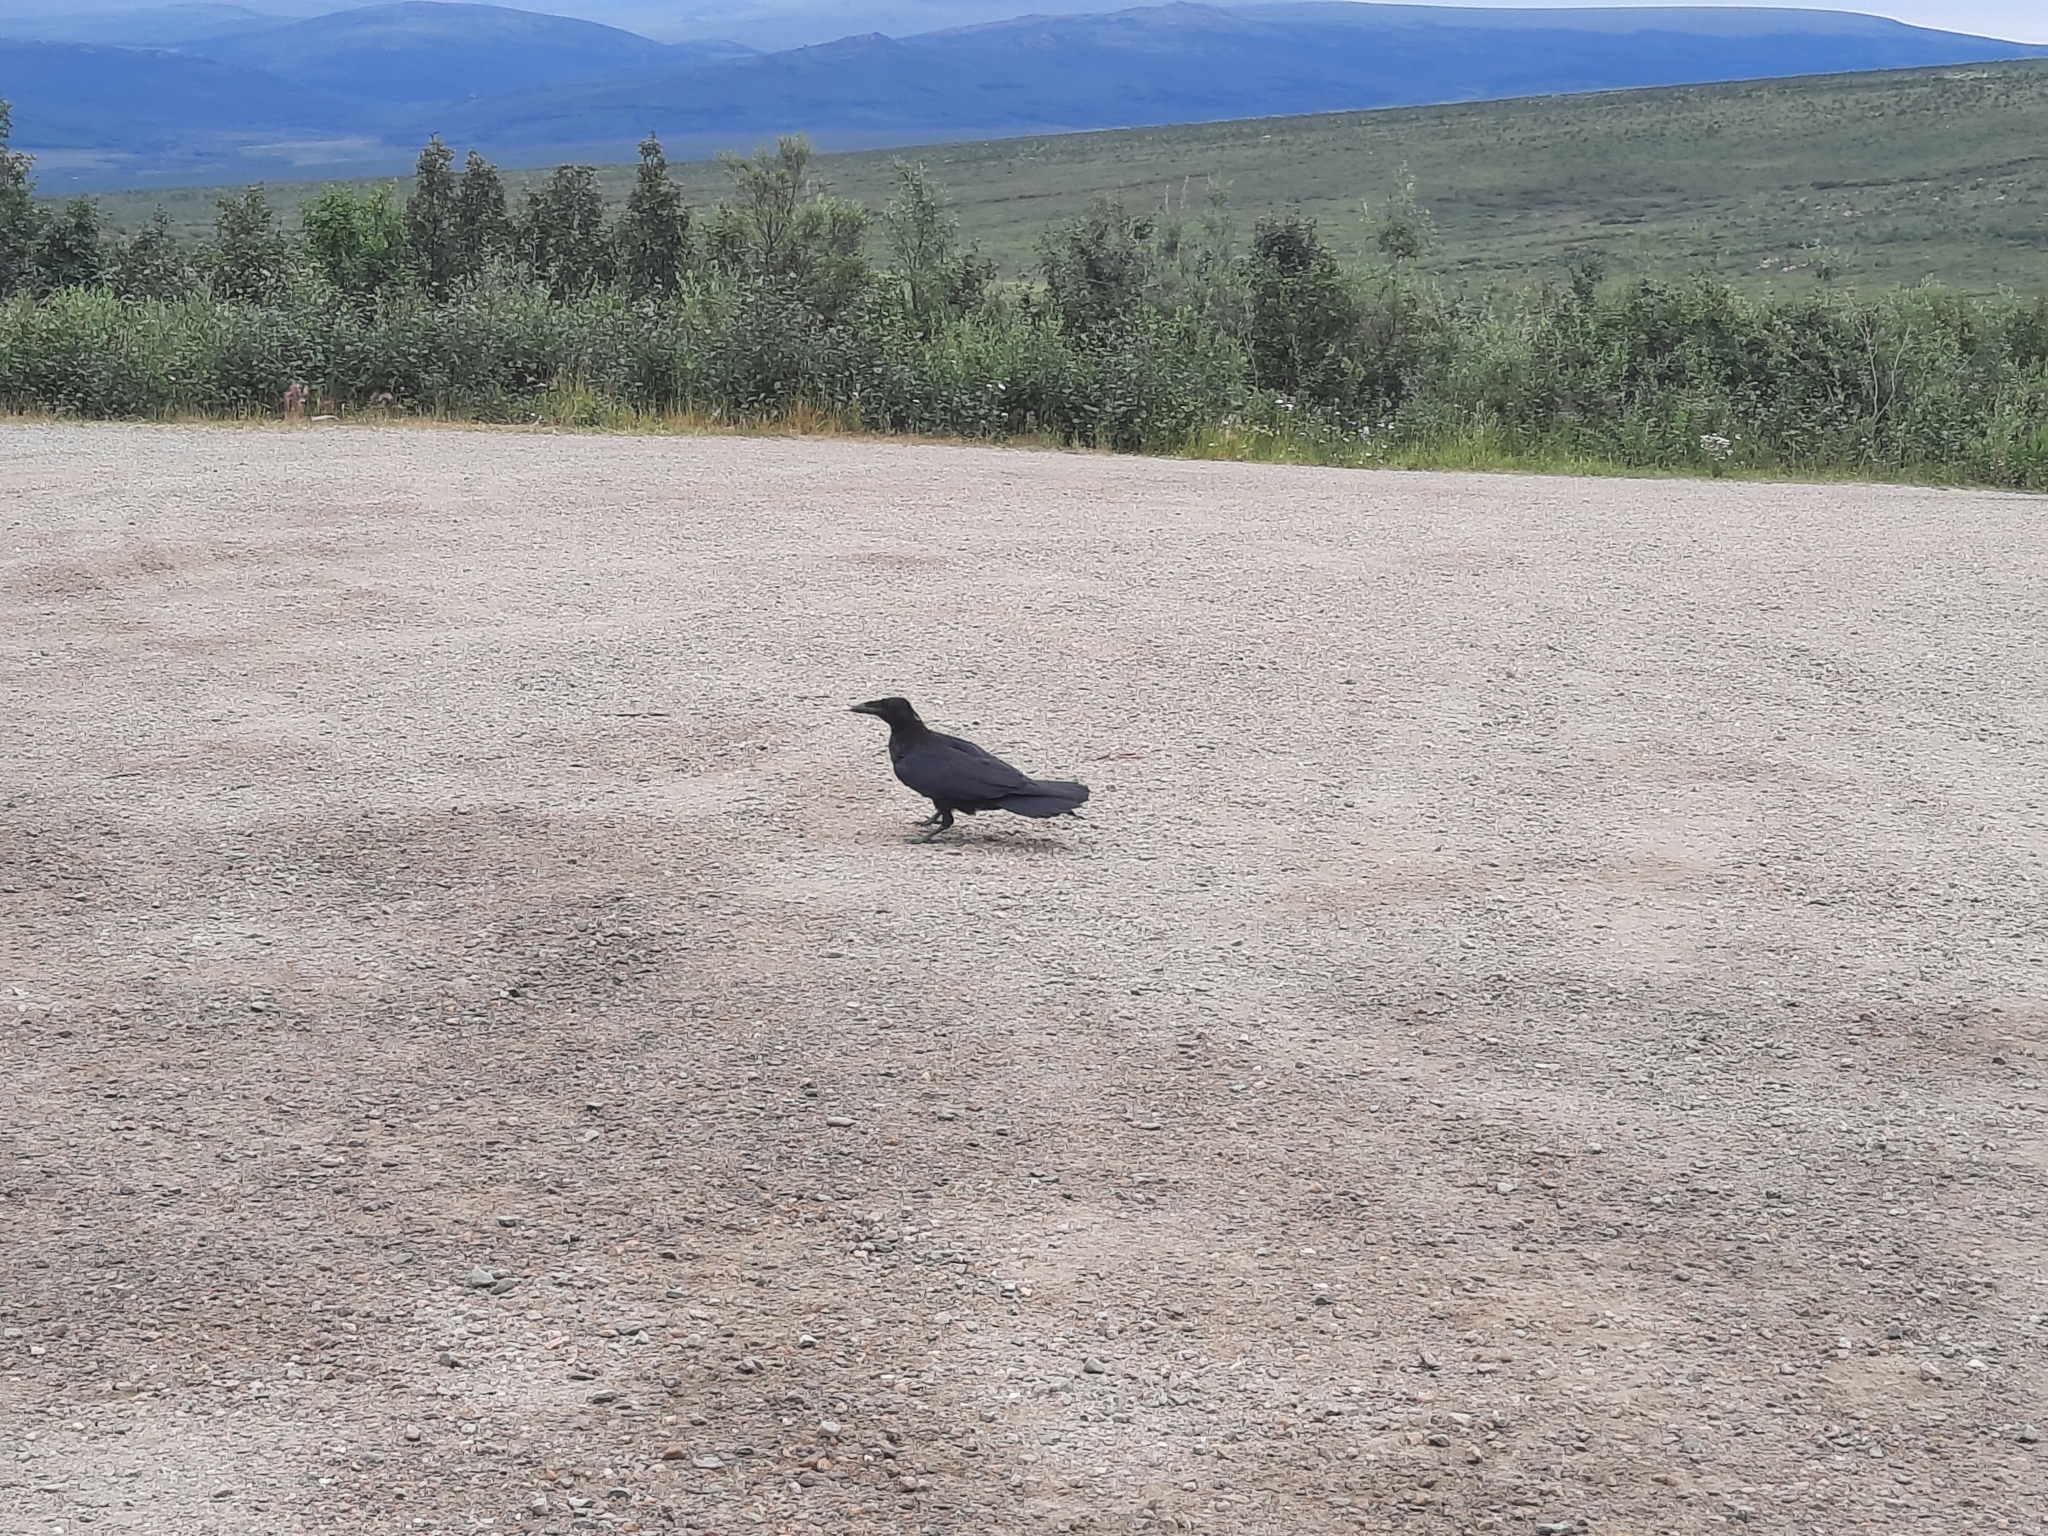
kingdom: Animalia
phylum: Chordata
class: Aves
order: Passeriformes
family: Corvidae
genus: Corvus
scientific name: Corvus corax
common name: Common raven
